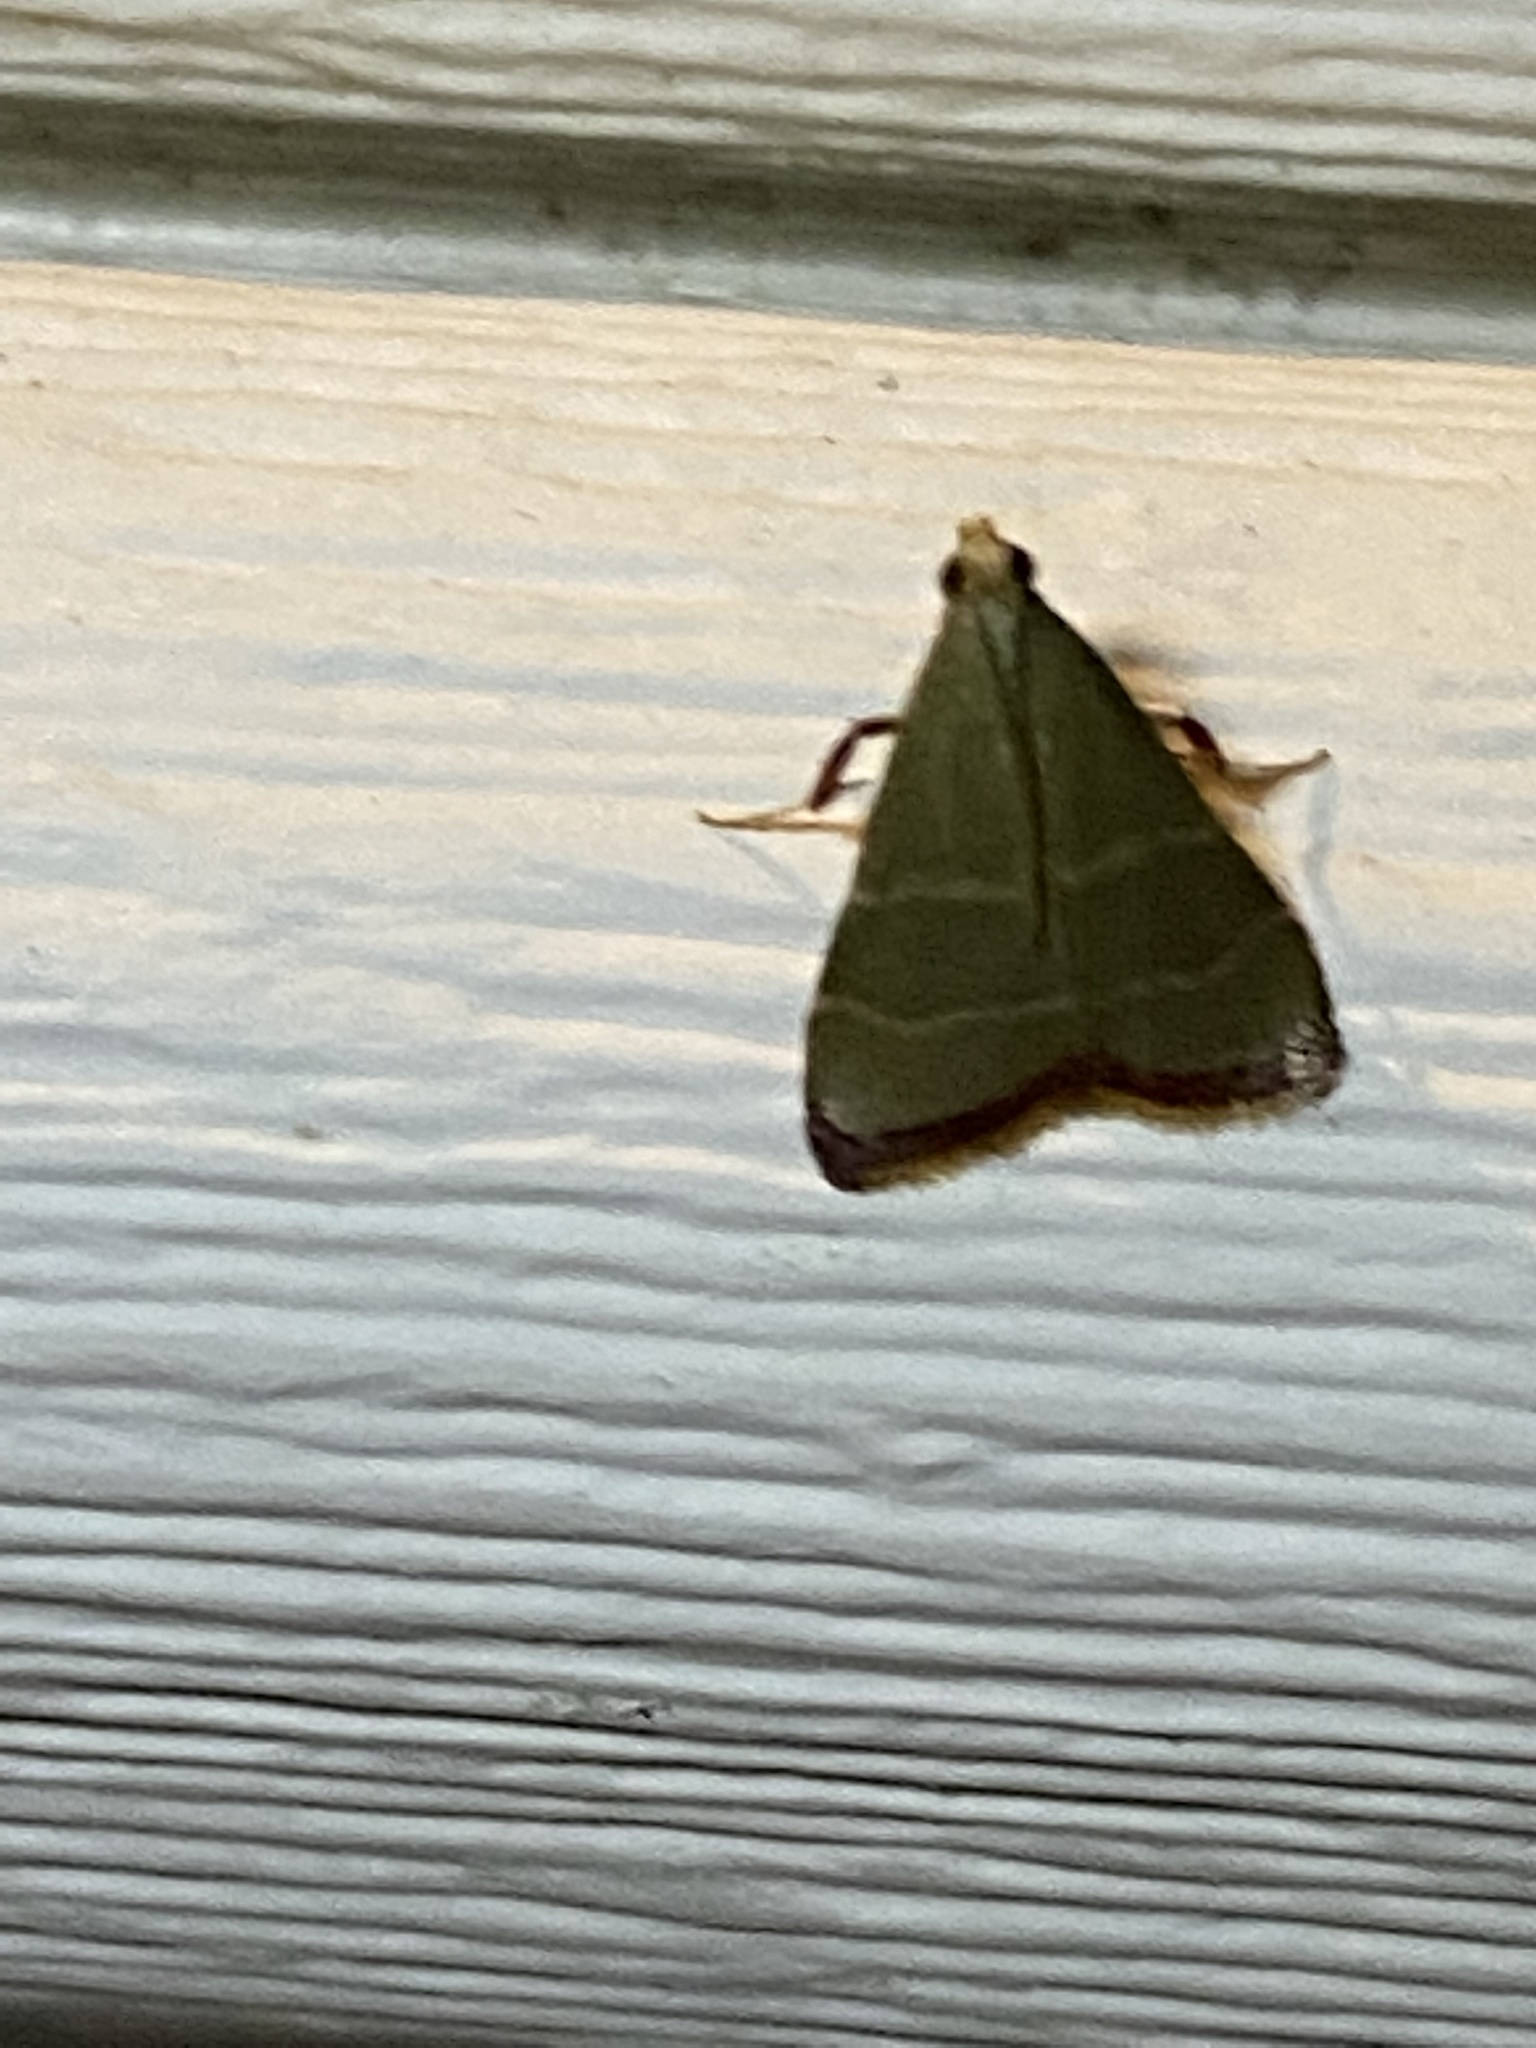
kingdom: Animalia
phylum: Arthropoda
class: Insecta
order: Lepidoptera
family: Pyralidae
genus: Arta
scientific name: Arta olivalis
